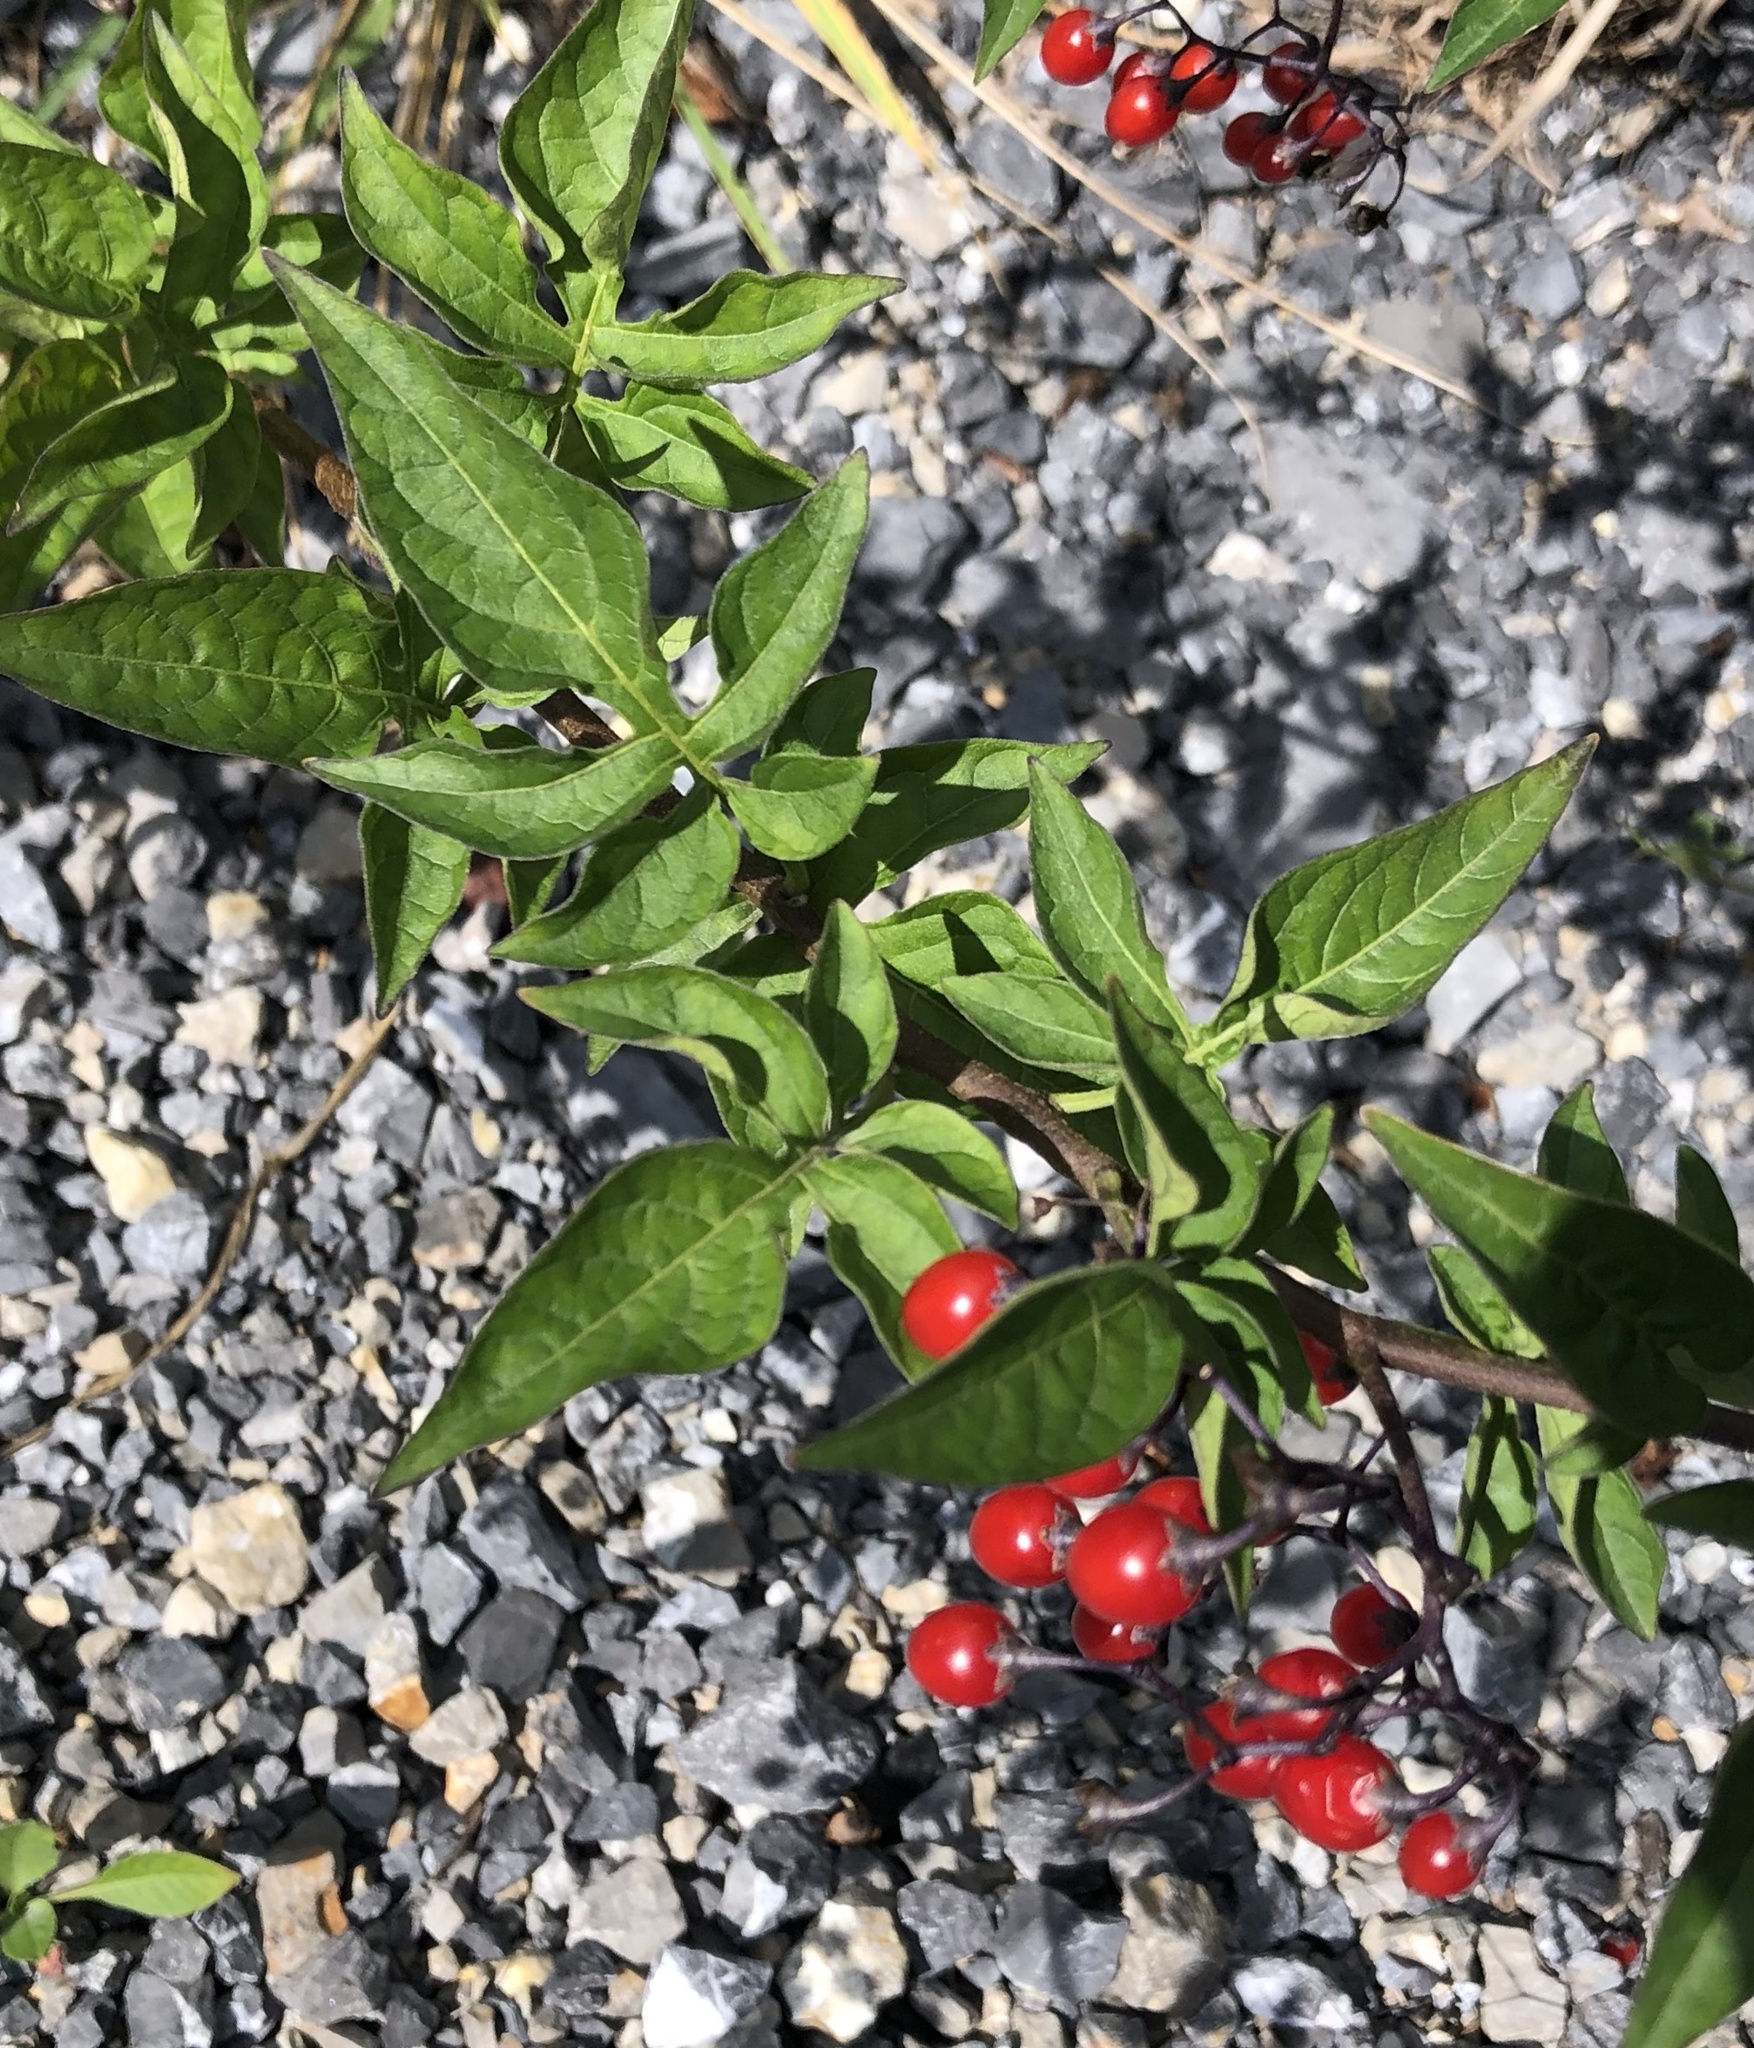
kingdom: Plantae
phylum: Tracheophyta
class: Magnoliopsida
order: Solanales
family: Solanaceae
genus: Solanum
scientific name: Solanum dulcamara
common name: Climbing nightshade
